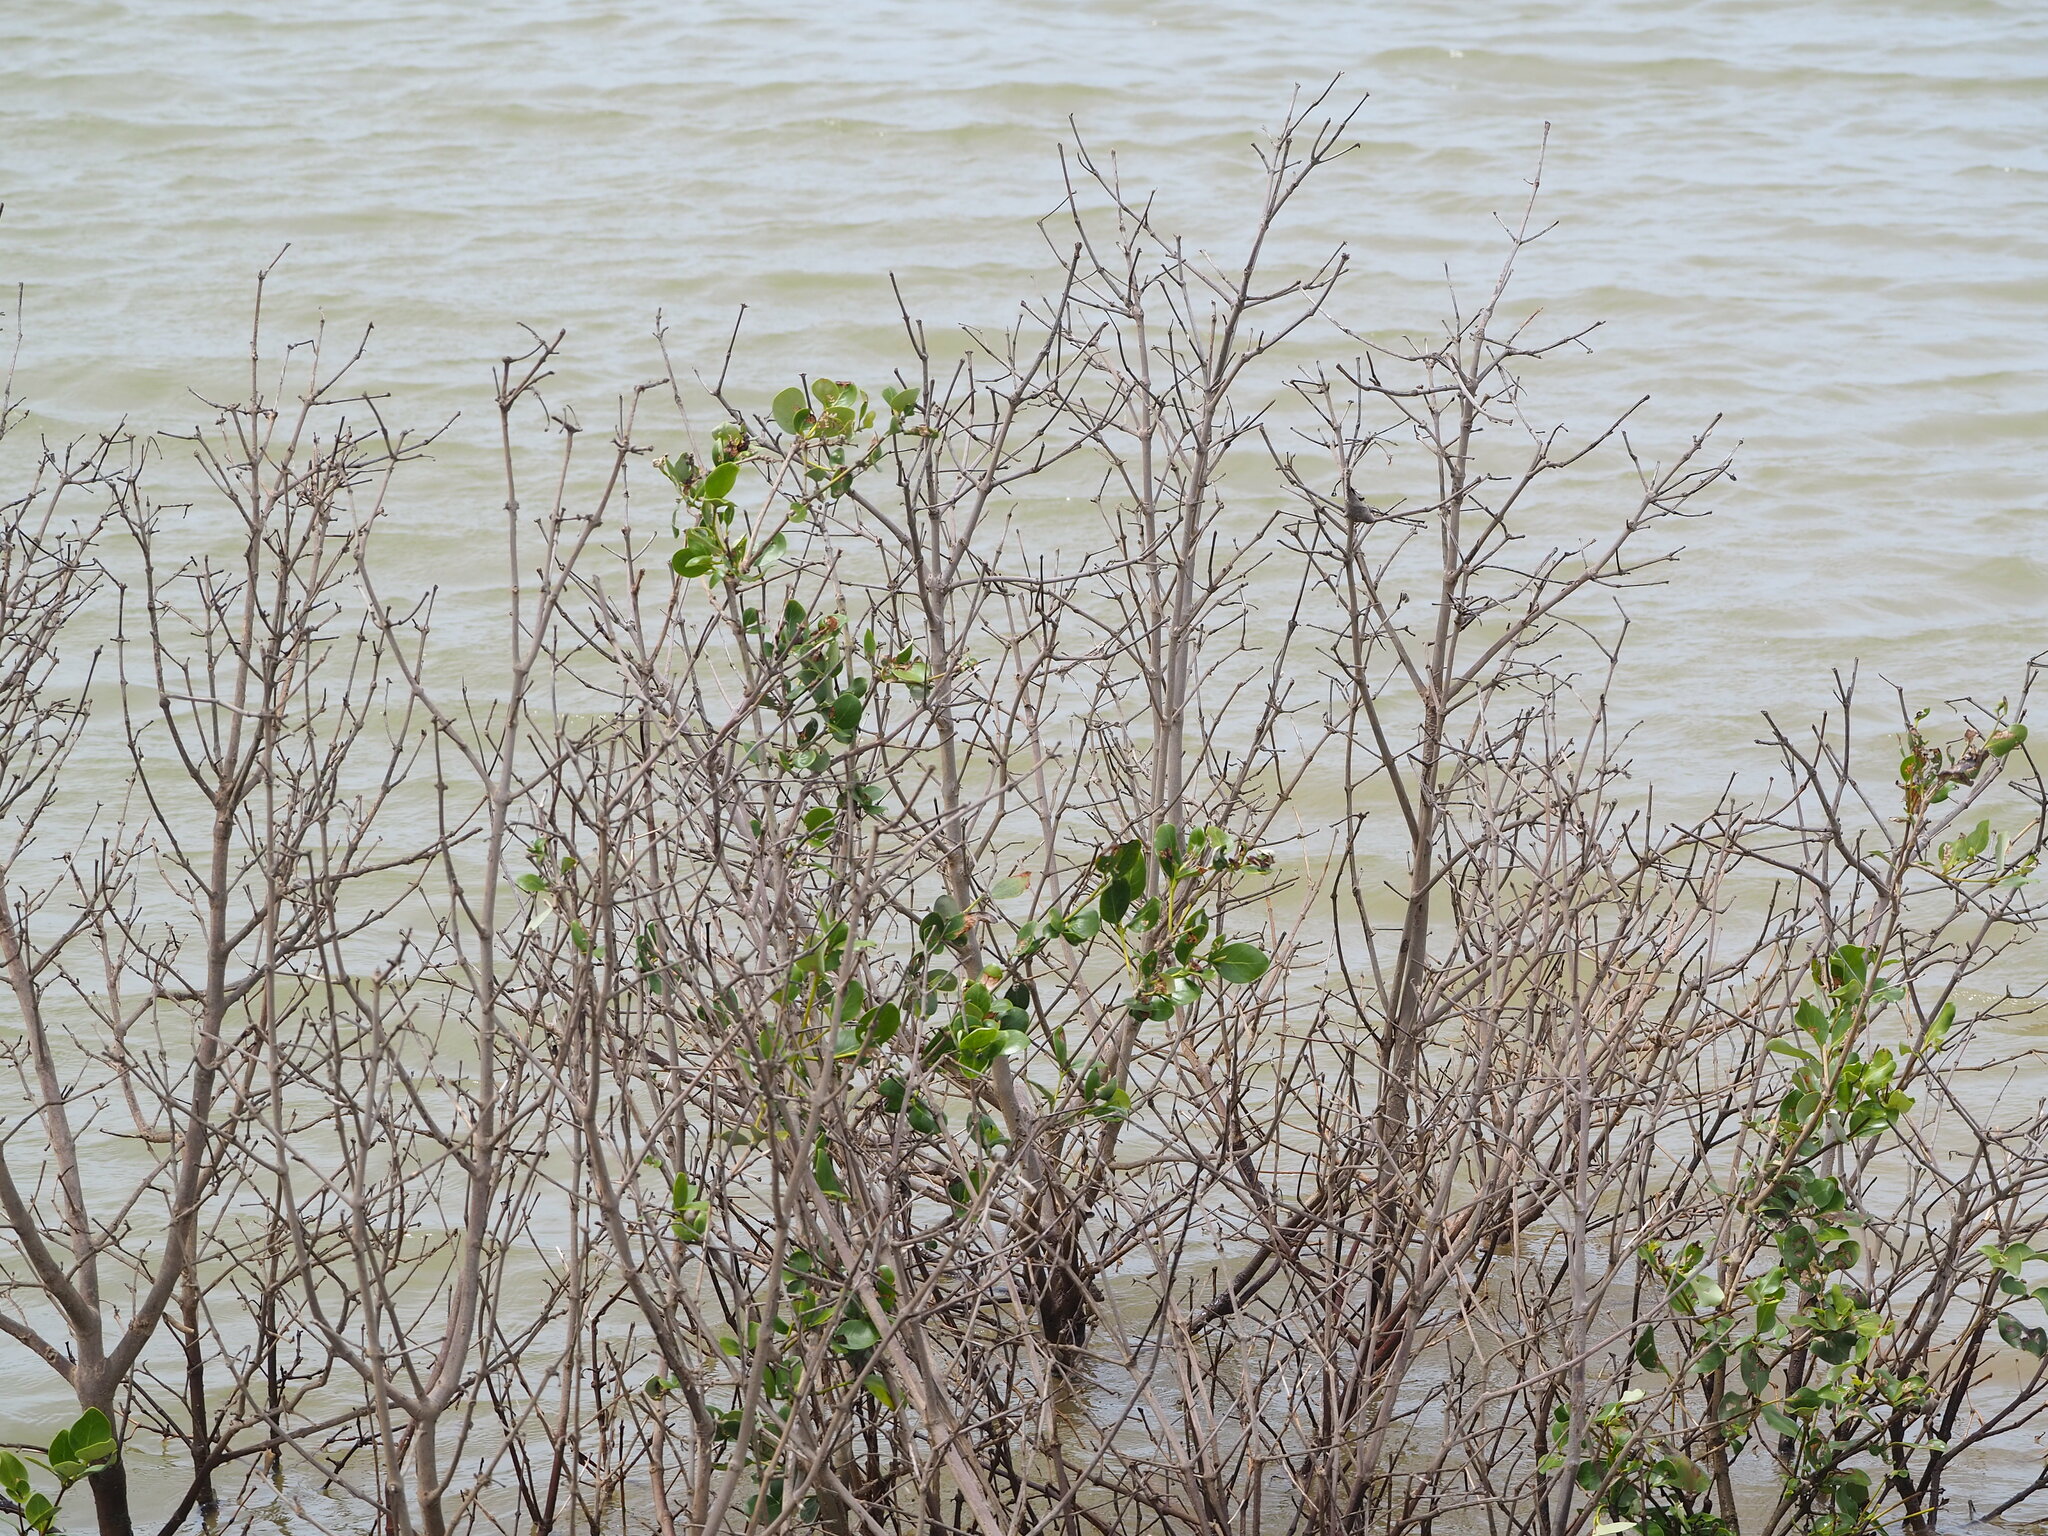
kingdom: Plantae
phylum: Tracheophyta
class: Magnoliopsida
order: Lamiales
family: Acanthaceae
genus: Avicennia
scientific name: Avicennia marina
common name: Gray mangrove
